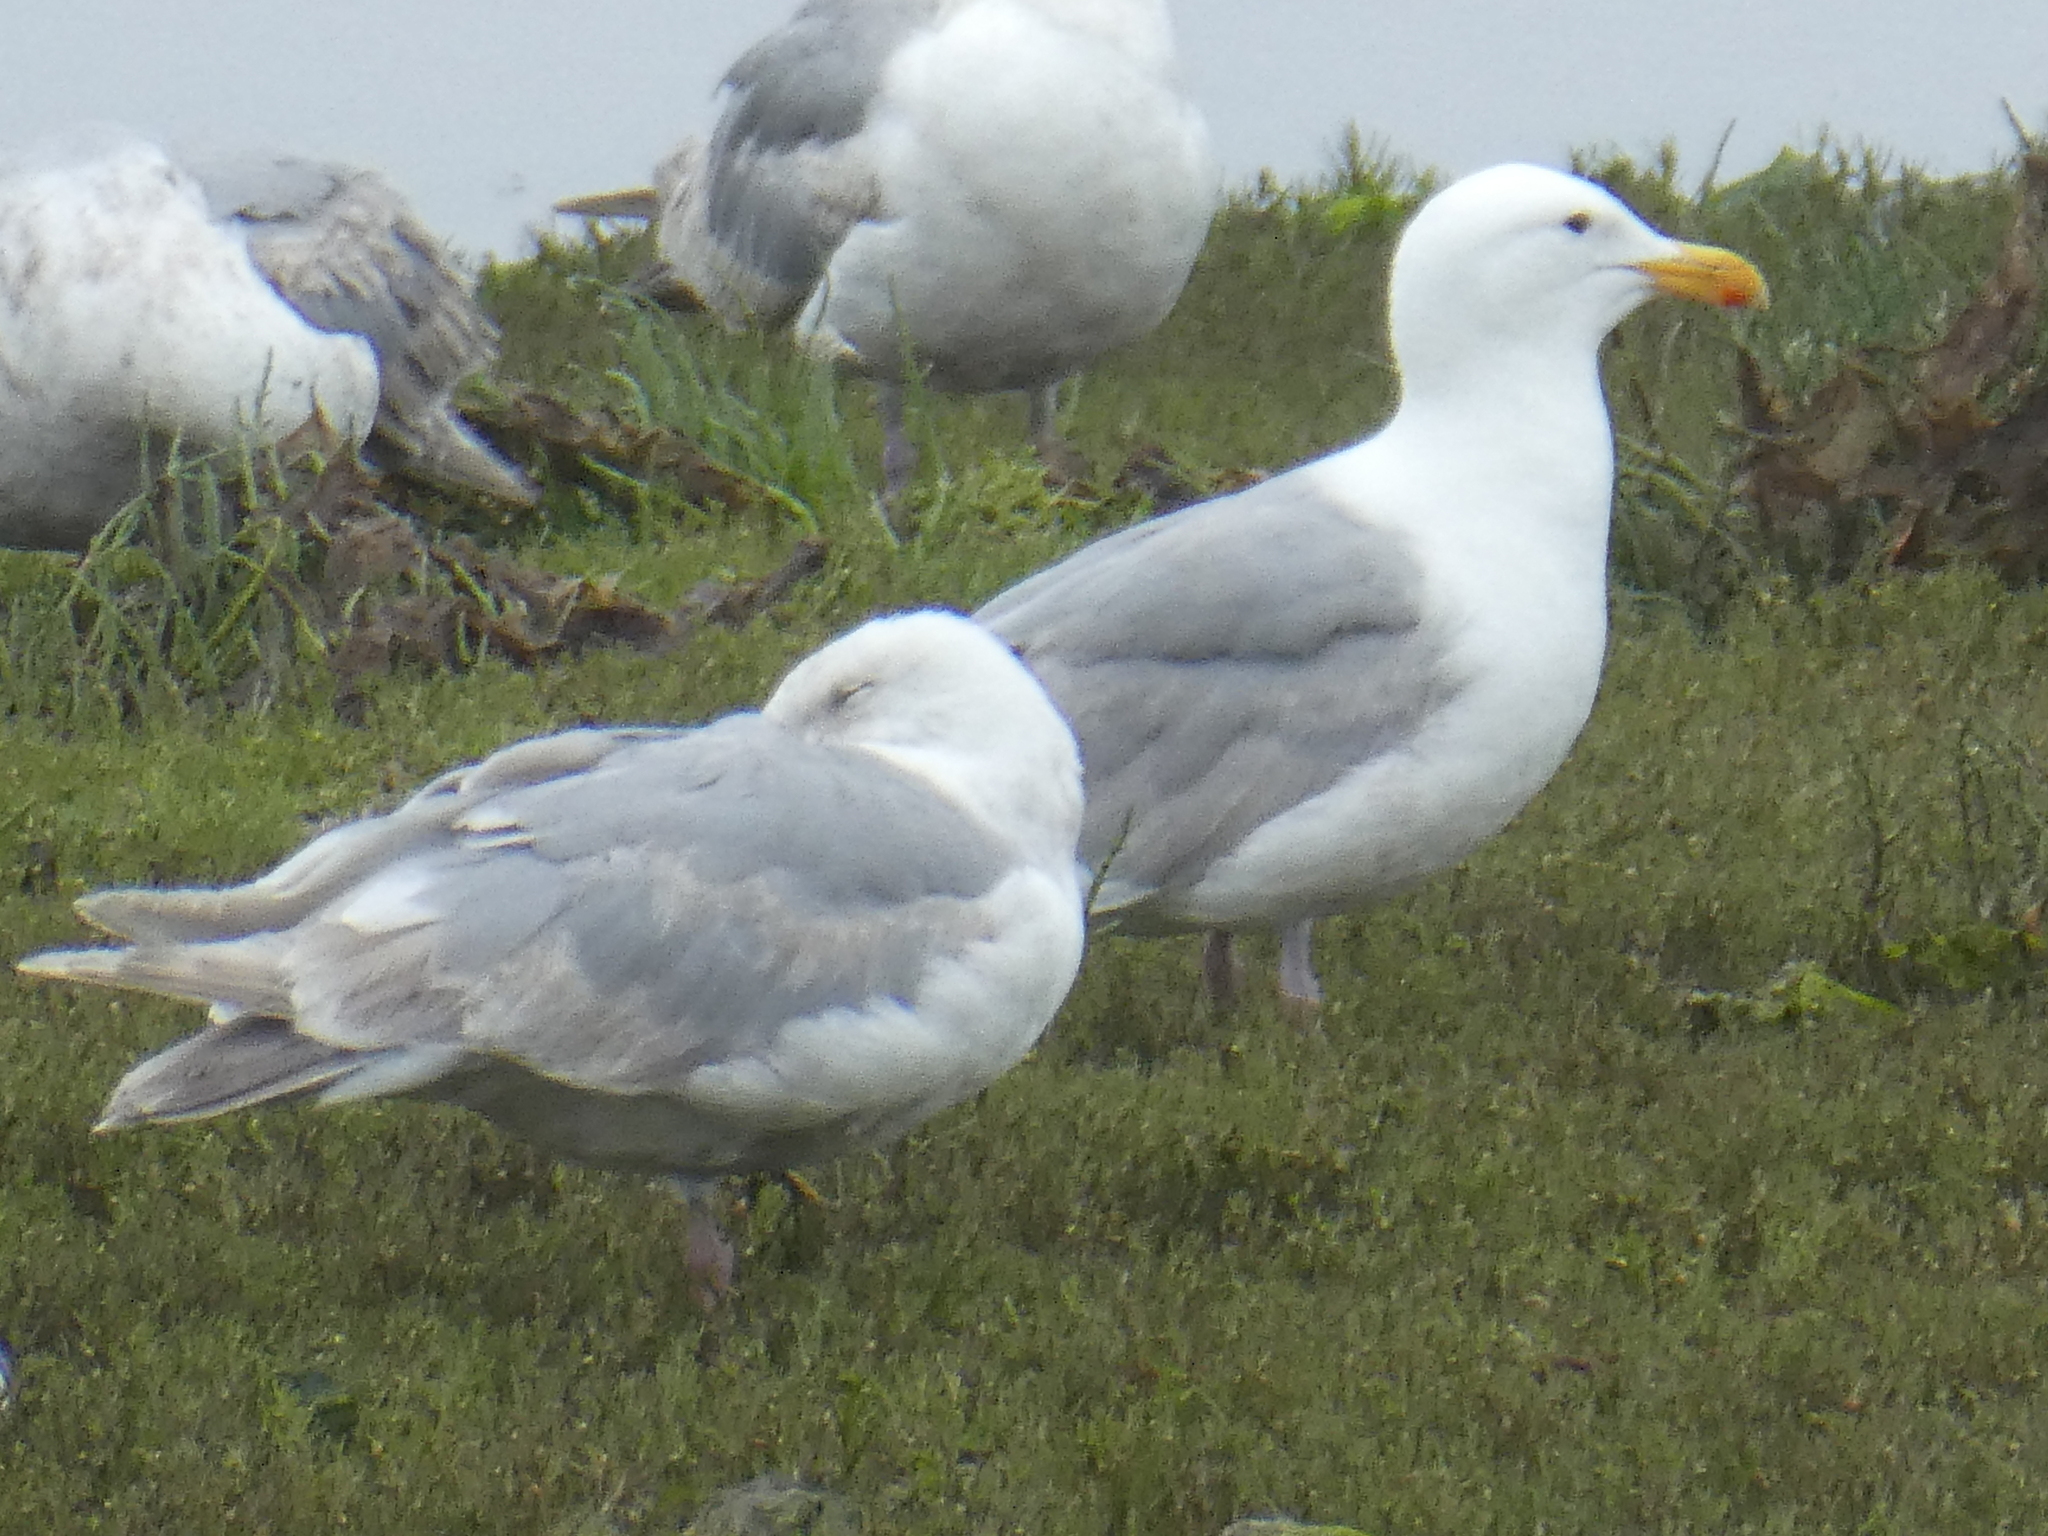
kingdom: Animalia
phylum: Chordata
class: Aves
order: Charadriiformes
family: Laridae
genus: Larus
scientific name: Larus glaucescens
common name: Glaucous-winged gull
